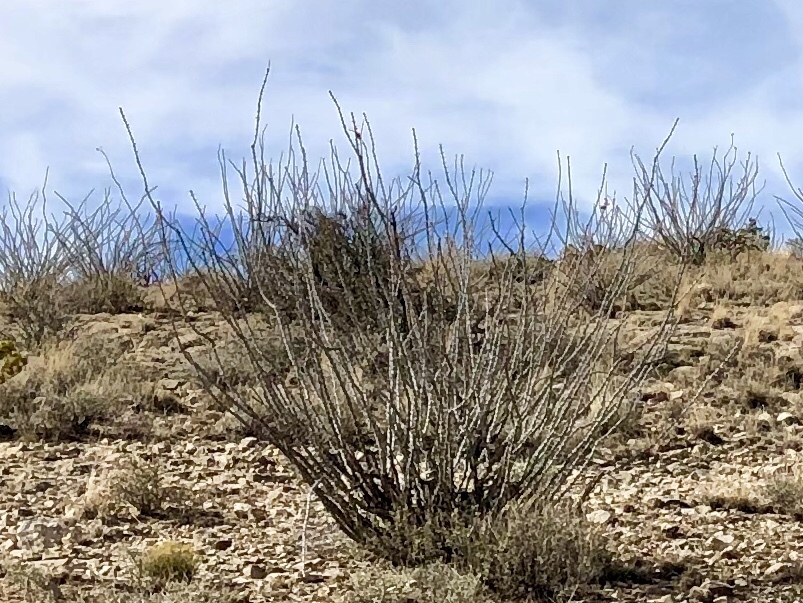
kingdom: Plantae
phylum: Tracheophyta
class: Magnoliopsida
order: Ericales
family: Fouquieriaceae
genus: Fouquieria
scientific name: Fouquieria splendens
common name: Vine-cactus
